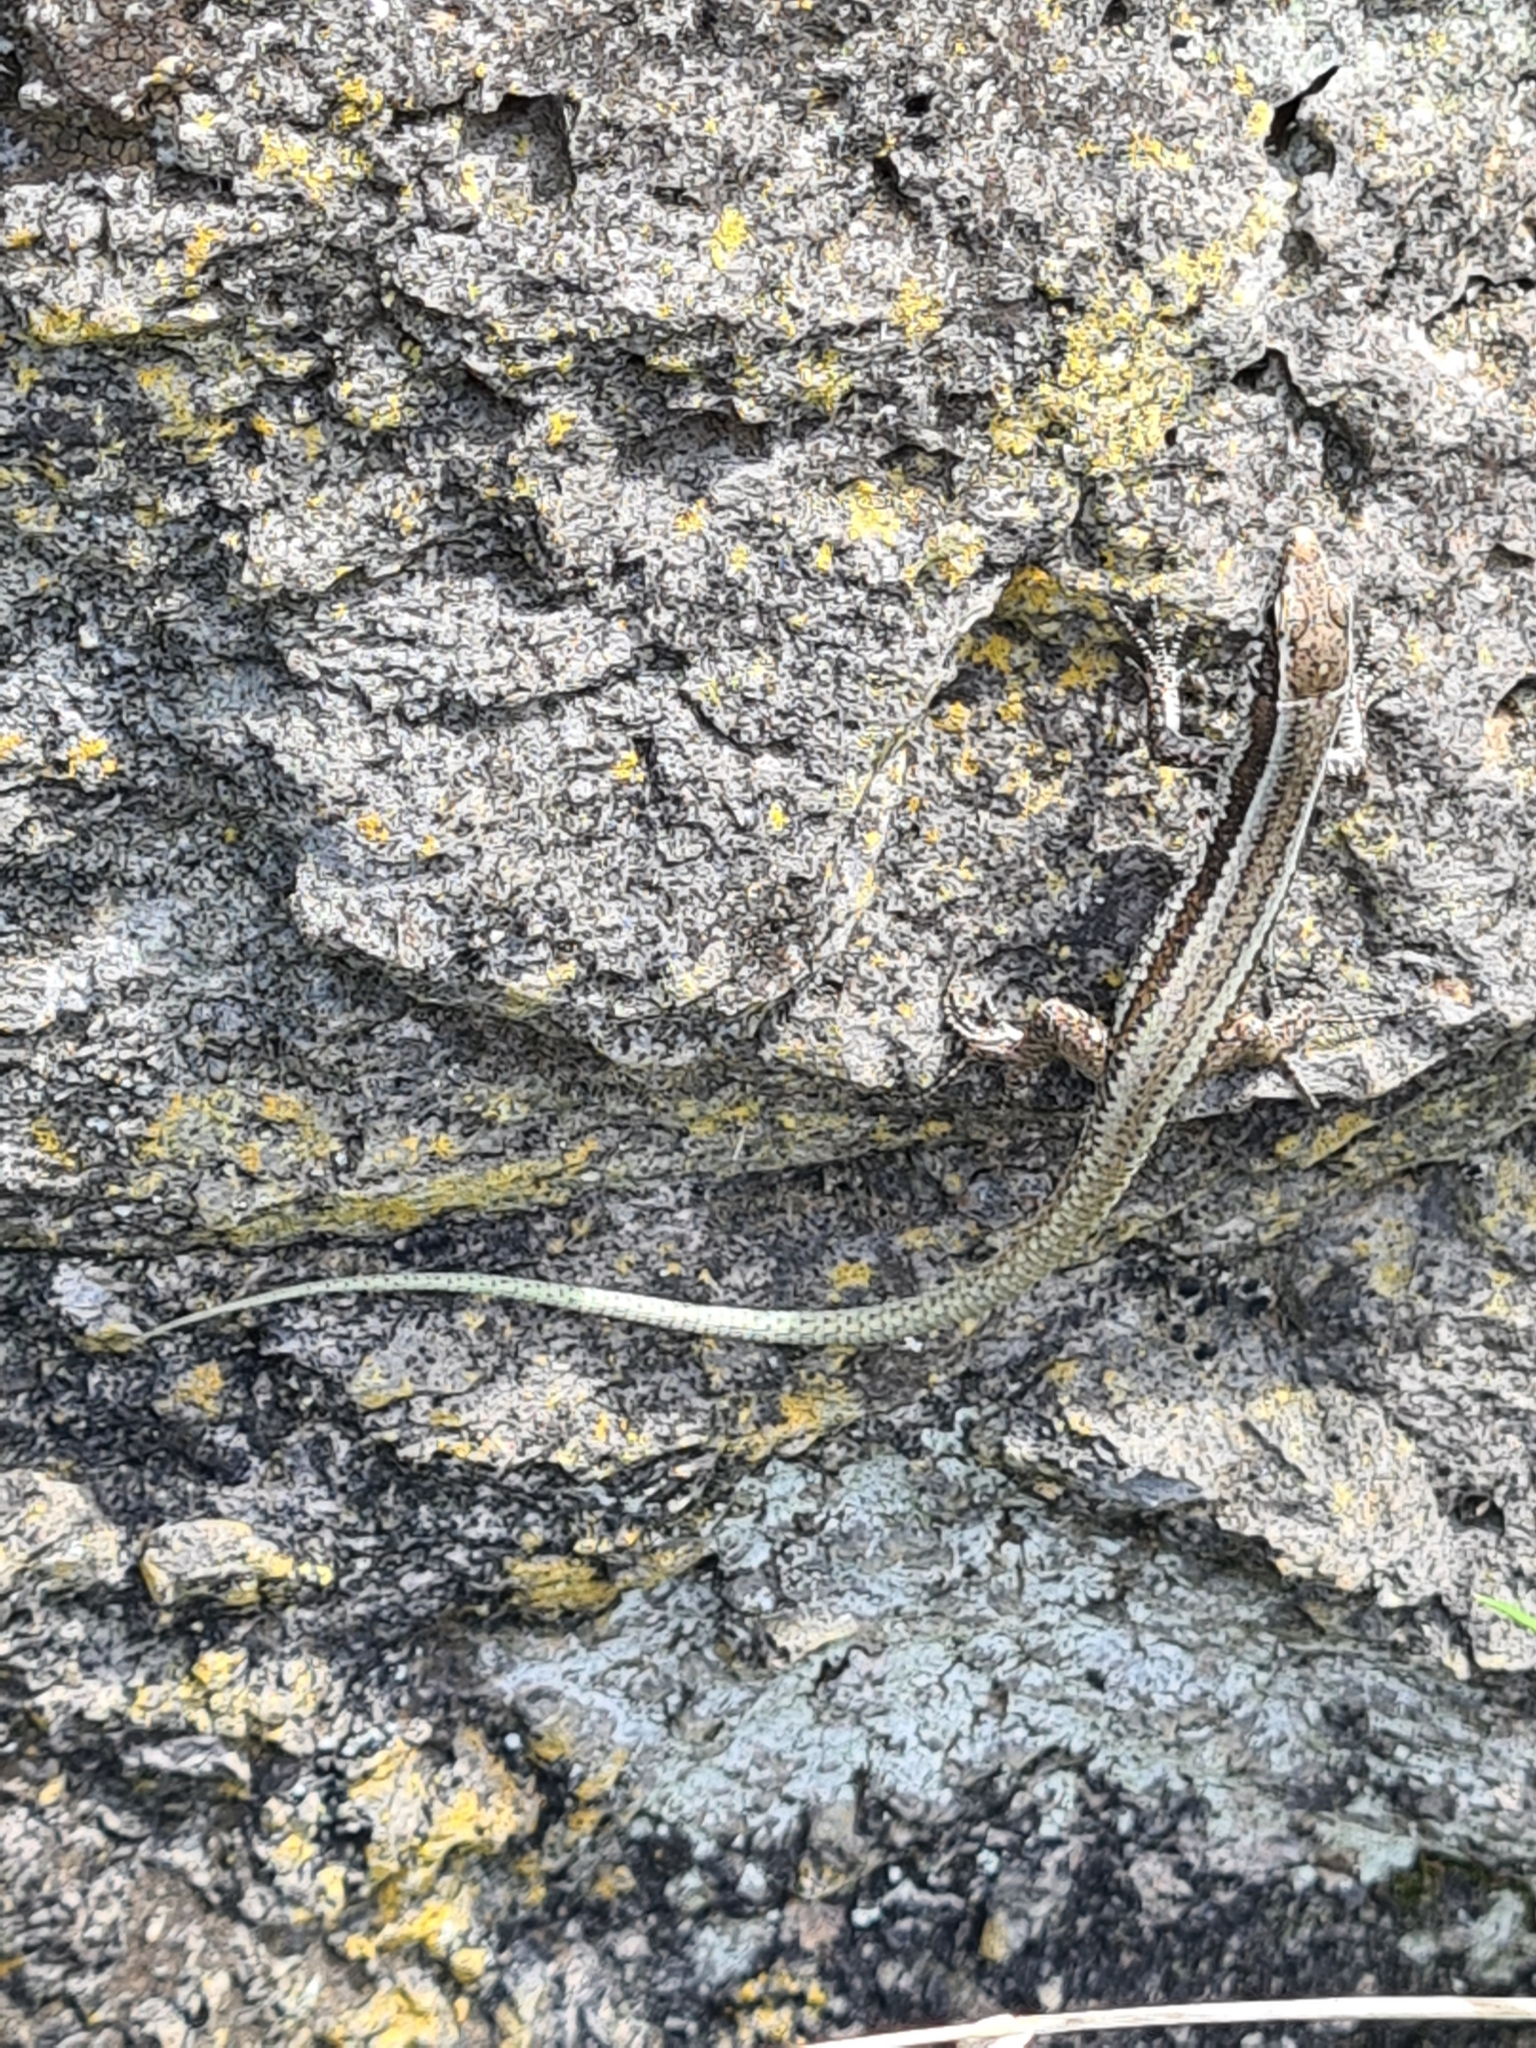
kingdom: Animalia
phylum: Chordata
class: Squamata
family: Lacertidae
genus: Teira
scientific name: Teira dugesii
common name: Madeira lizard
